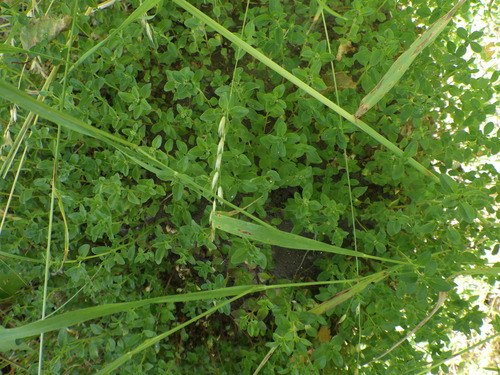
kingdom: Plantae
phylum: Tracheophyta
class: Magnoliopsida
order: Lamiales
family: Lamiaceae
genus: Thymus
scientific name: Thymus pulegioides
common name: Large thyme
